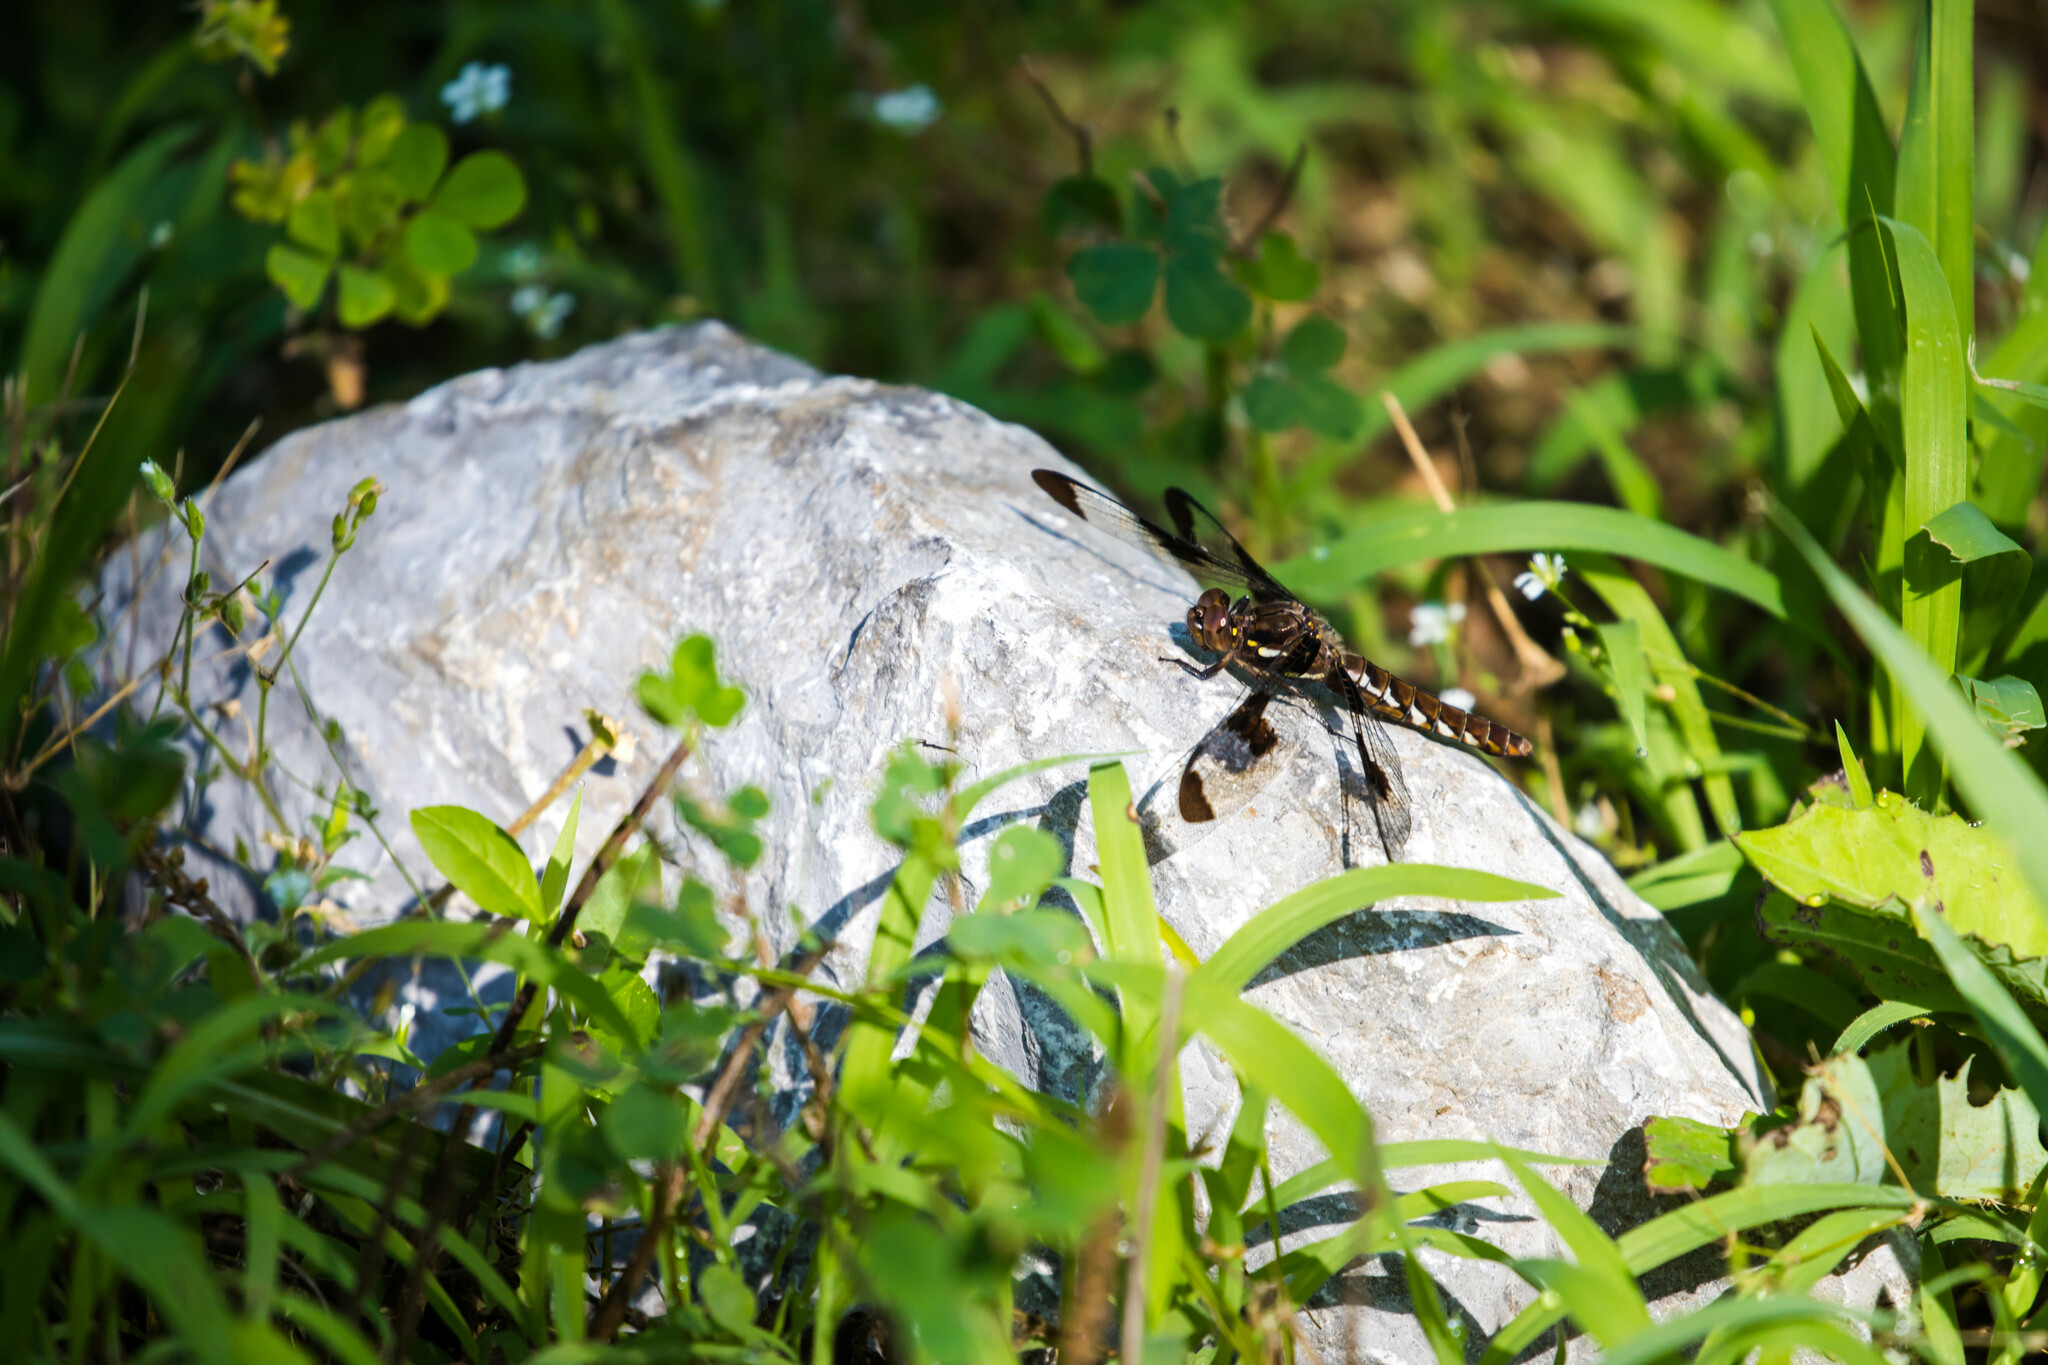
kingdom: Animalia
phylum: Arthropoda
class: Insecta
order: Odonata
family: Libellulidae
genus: Plathemis
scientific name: Plathemis lydia
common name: Common whitetail
